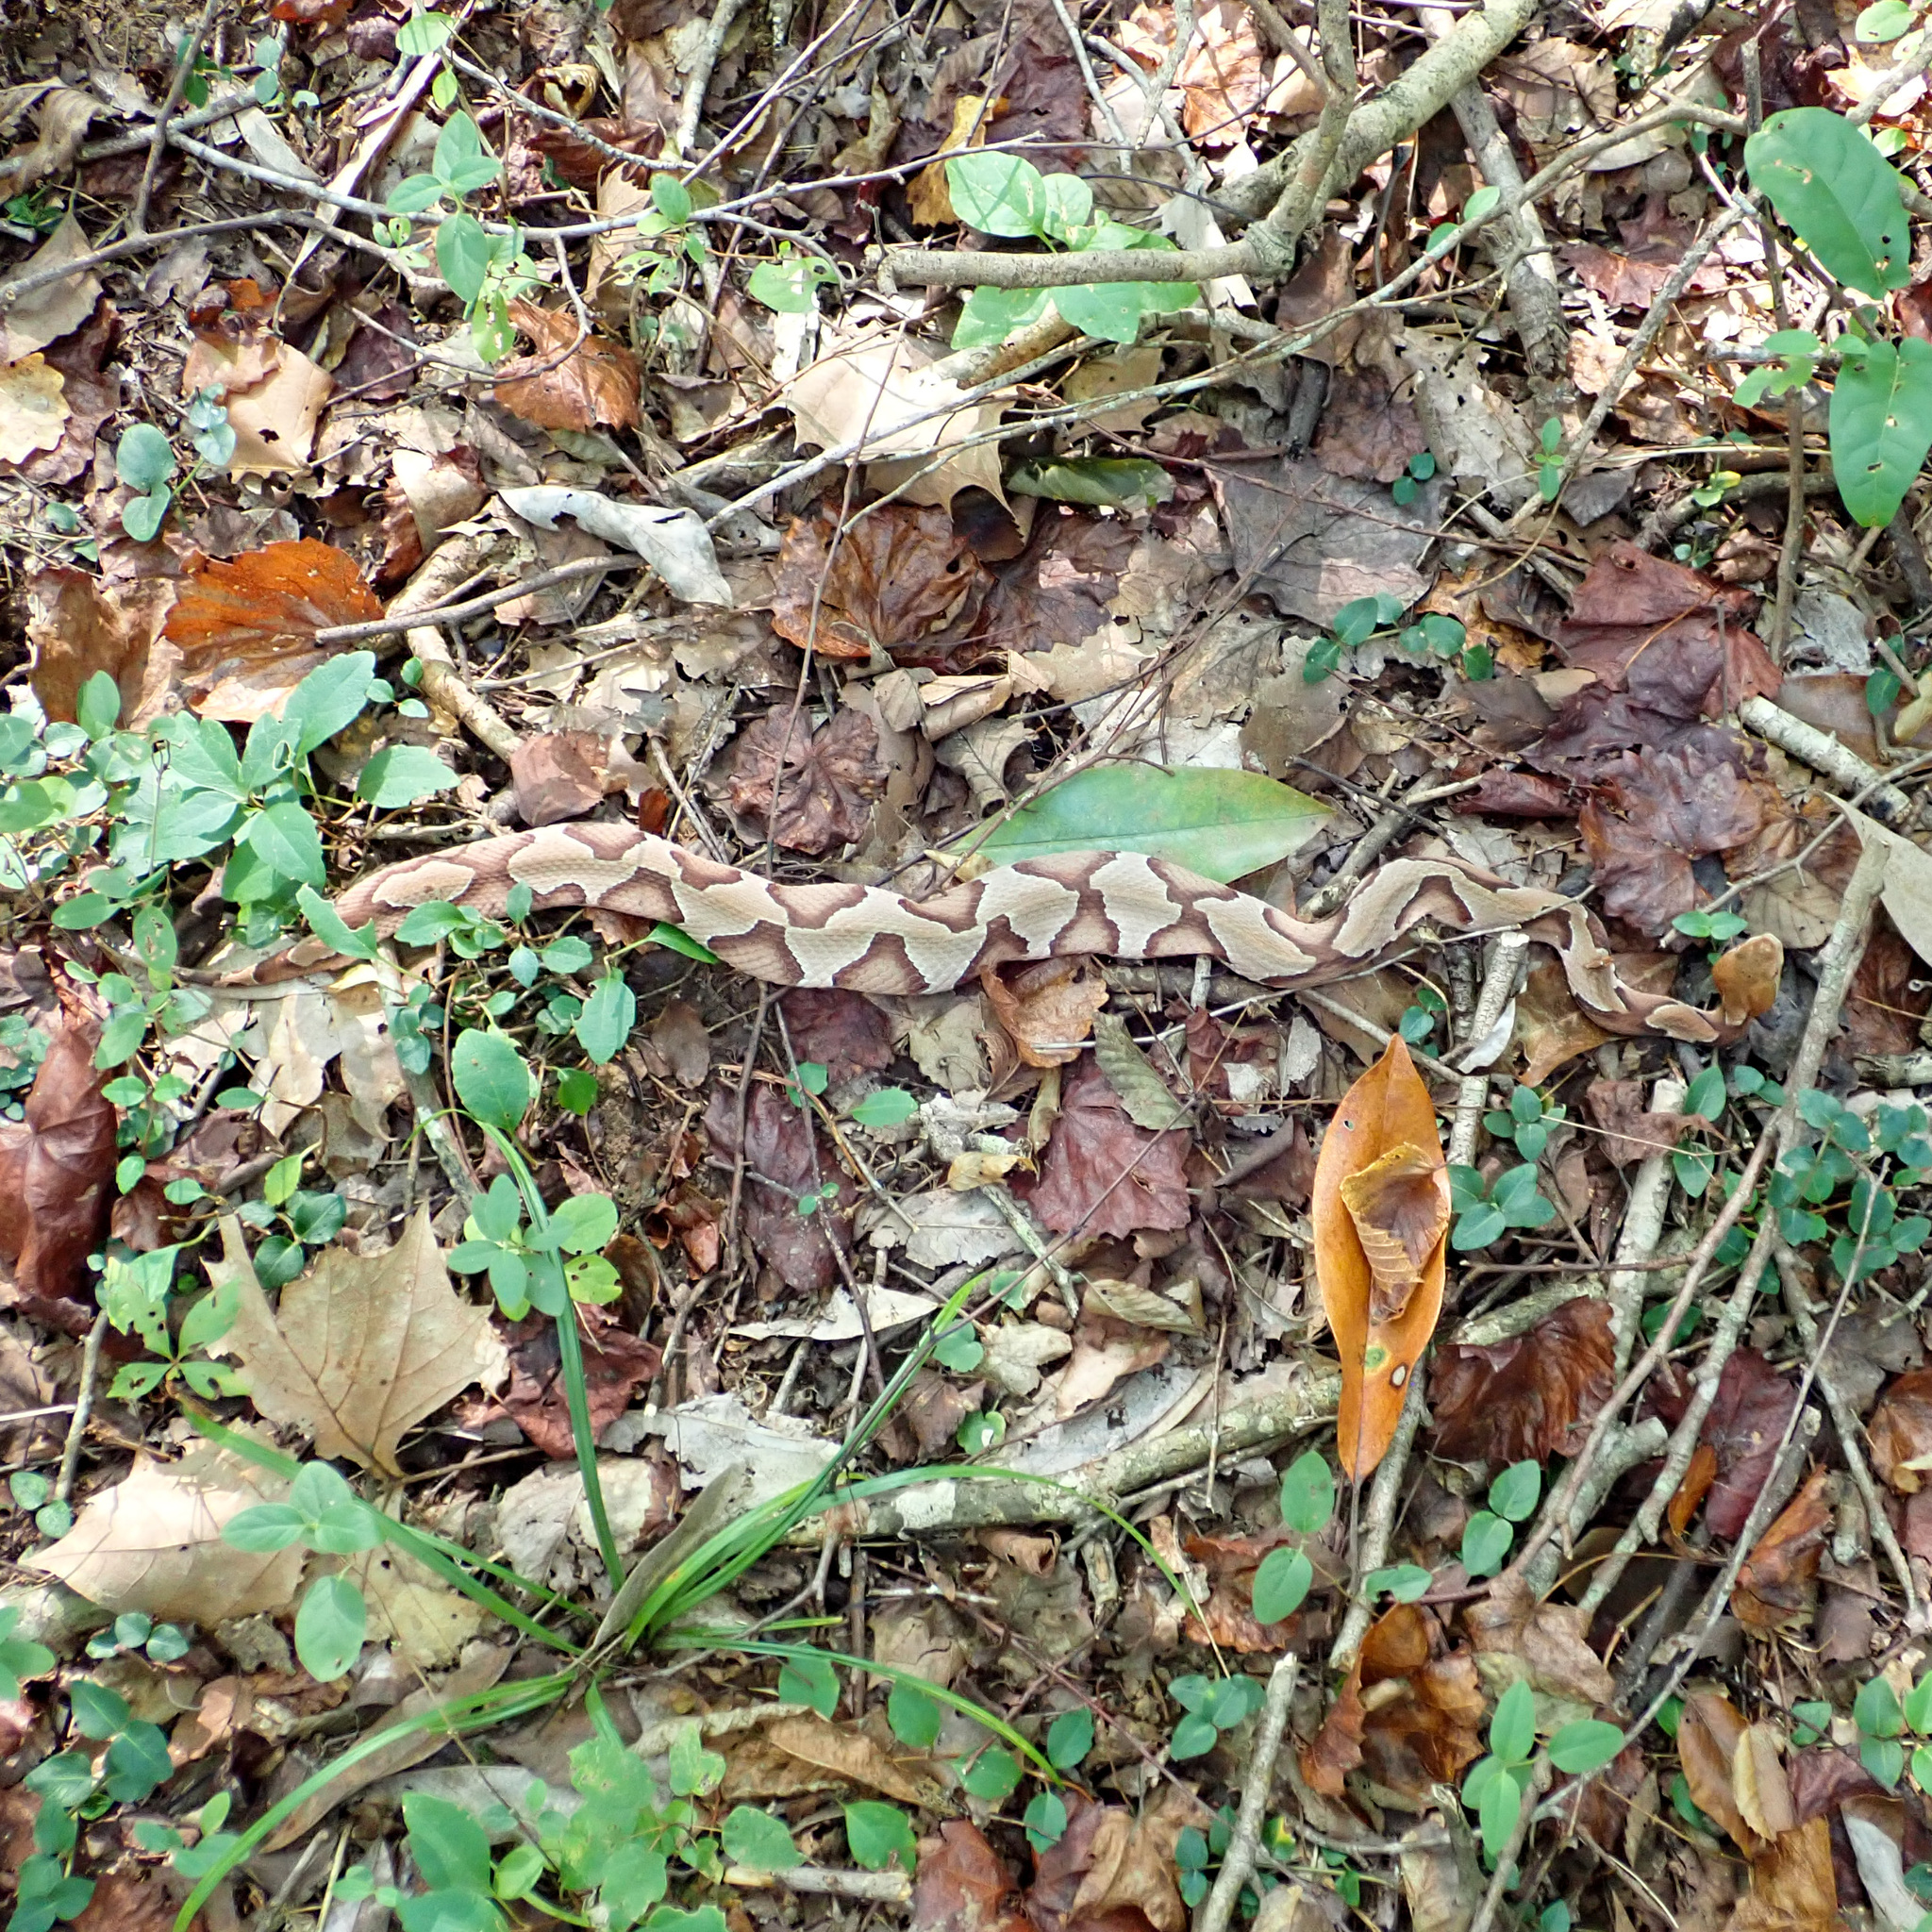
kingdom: Animalia
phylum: Chordata
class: Squamata
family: Viperidae
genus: Agkistrodon
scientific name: Agkistrodon contortrix
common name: Northern copperhead
